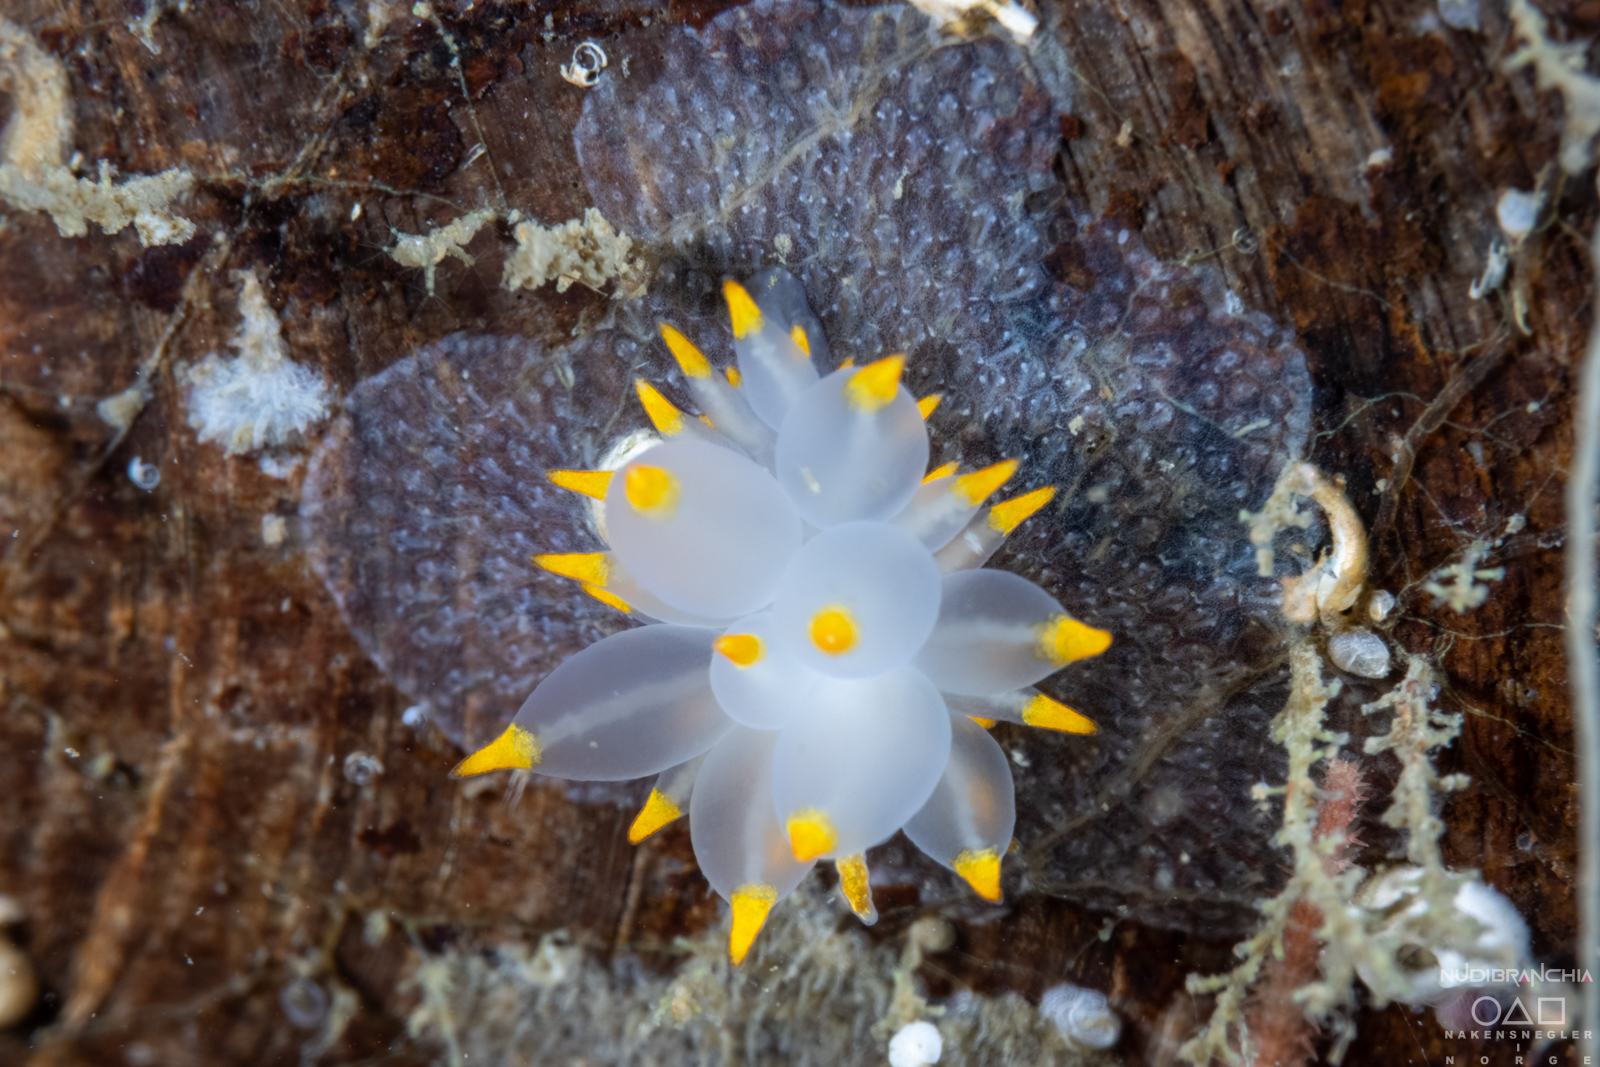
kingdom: Animalia
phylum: Mollusca
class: Gastropoda
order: Nudibranchia
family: Eubranchidae
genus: Amphorina
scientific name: Amphorina farrani
